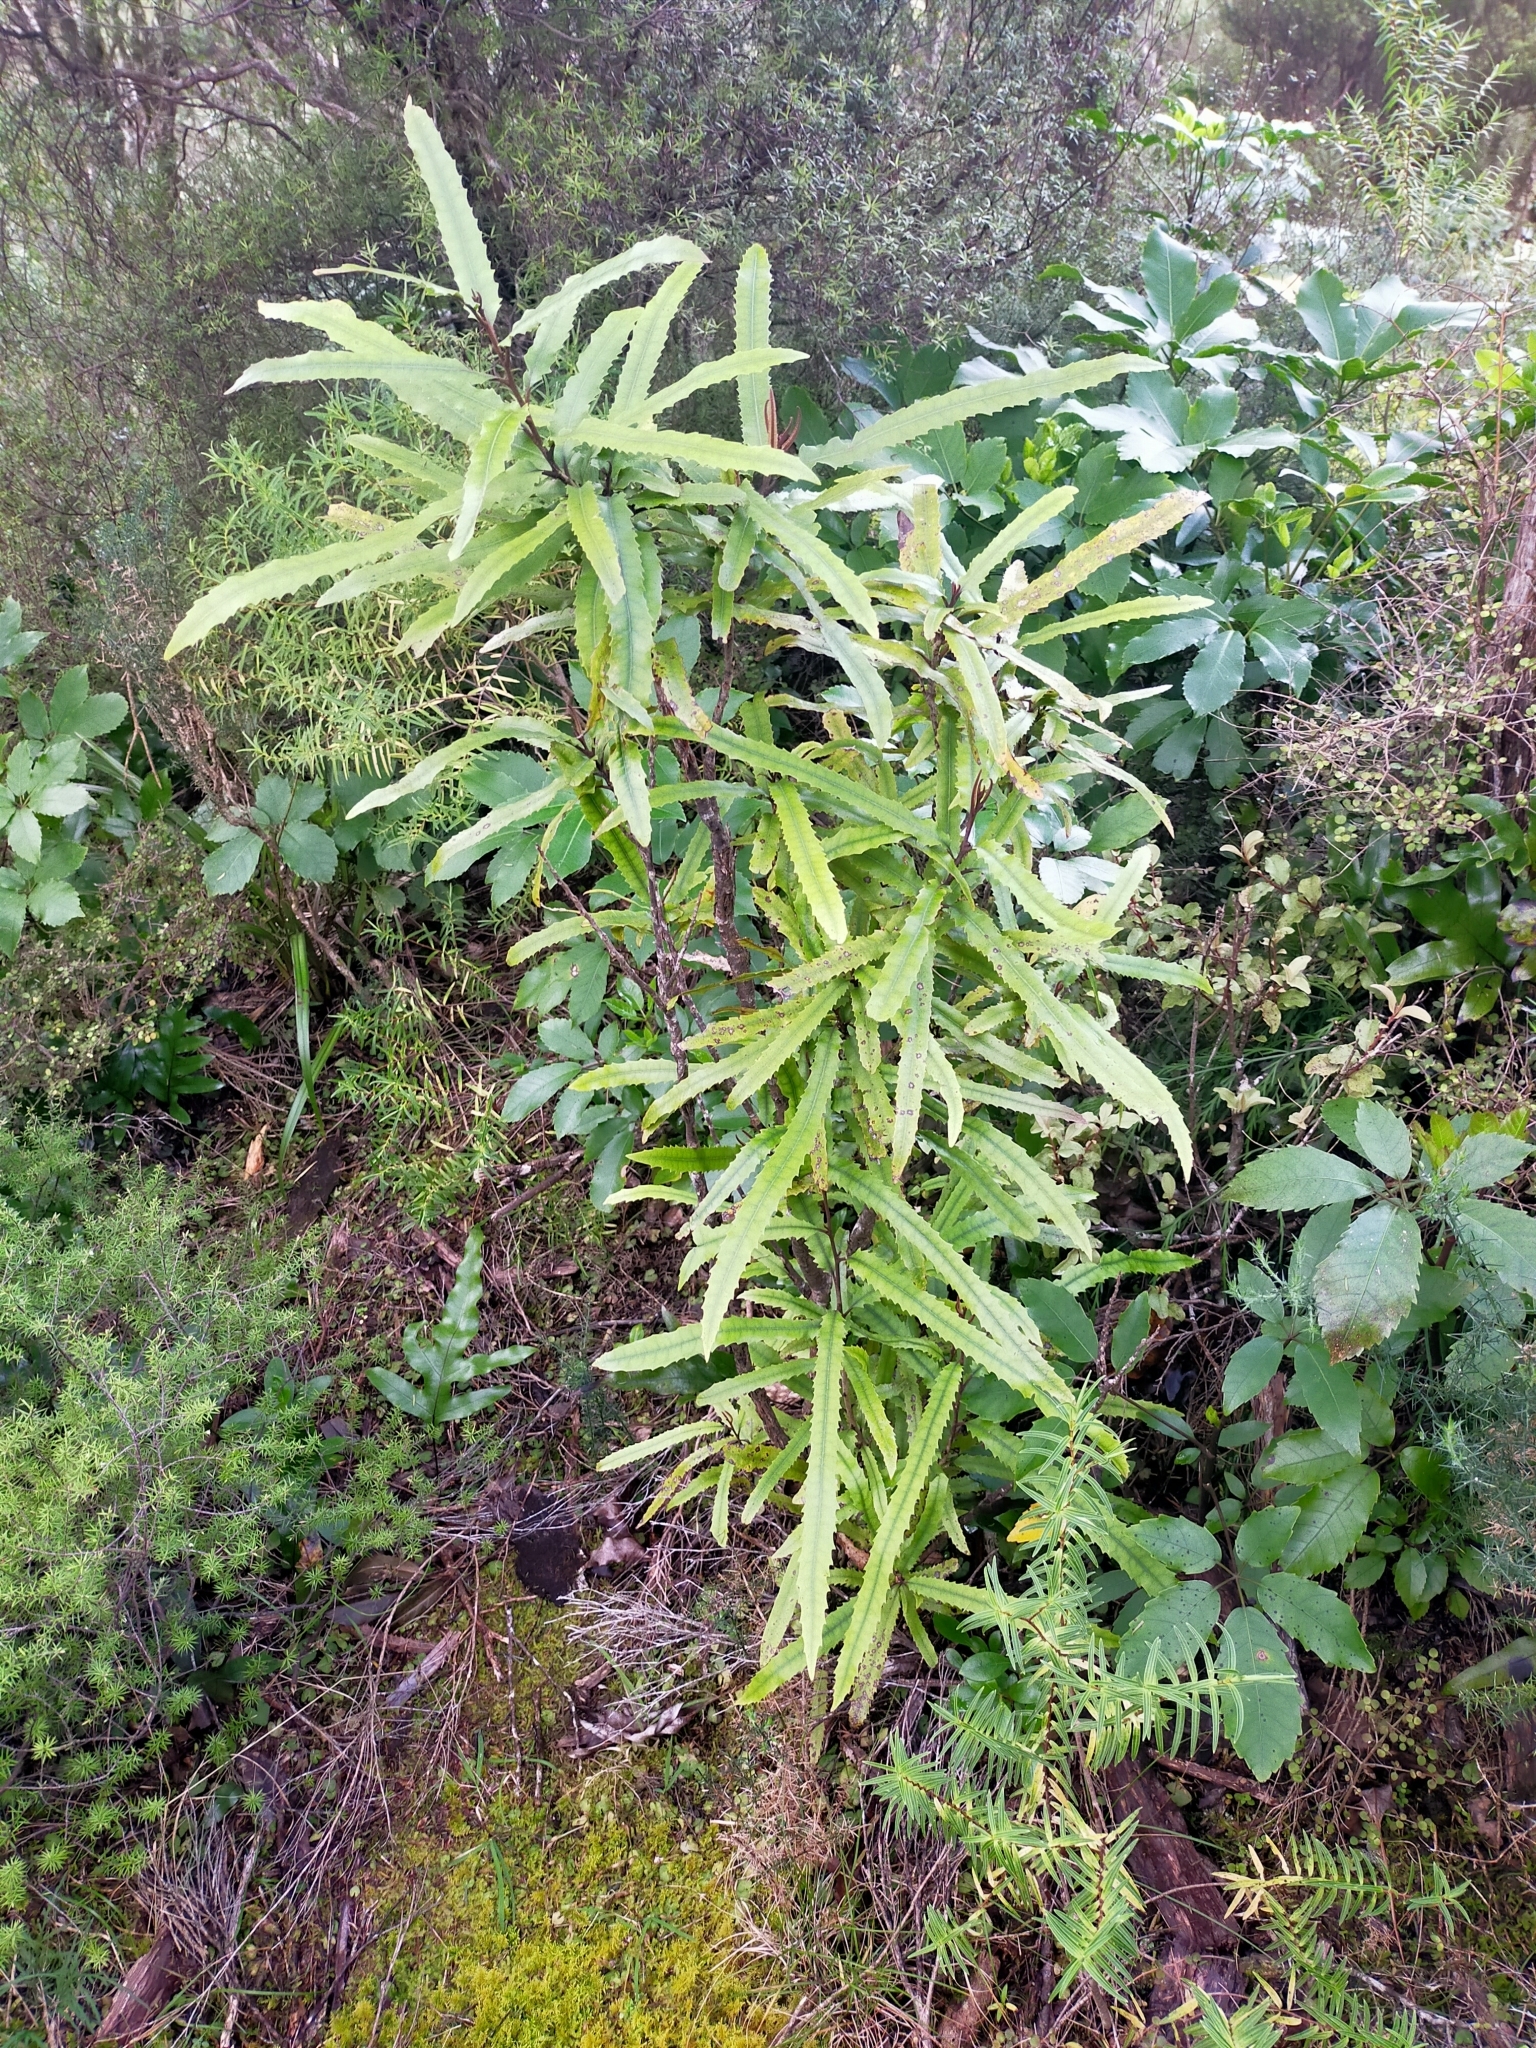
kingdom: Plantae
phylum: Tracheophyta
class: Magnoliopsida
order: Proteales
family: Proteaceae
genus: Knightia
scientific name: Knightia excelsa
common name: New zealand-honeysuckle
